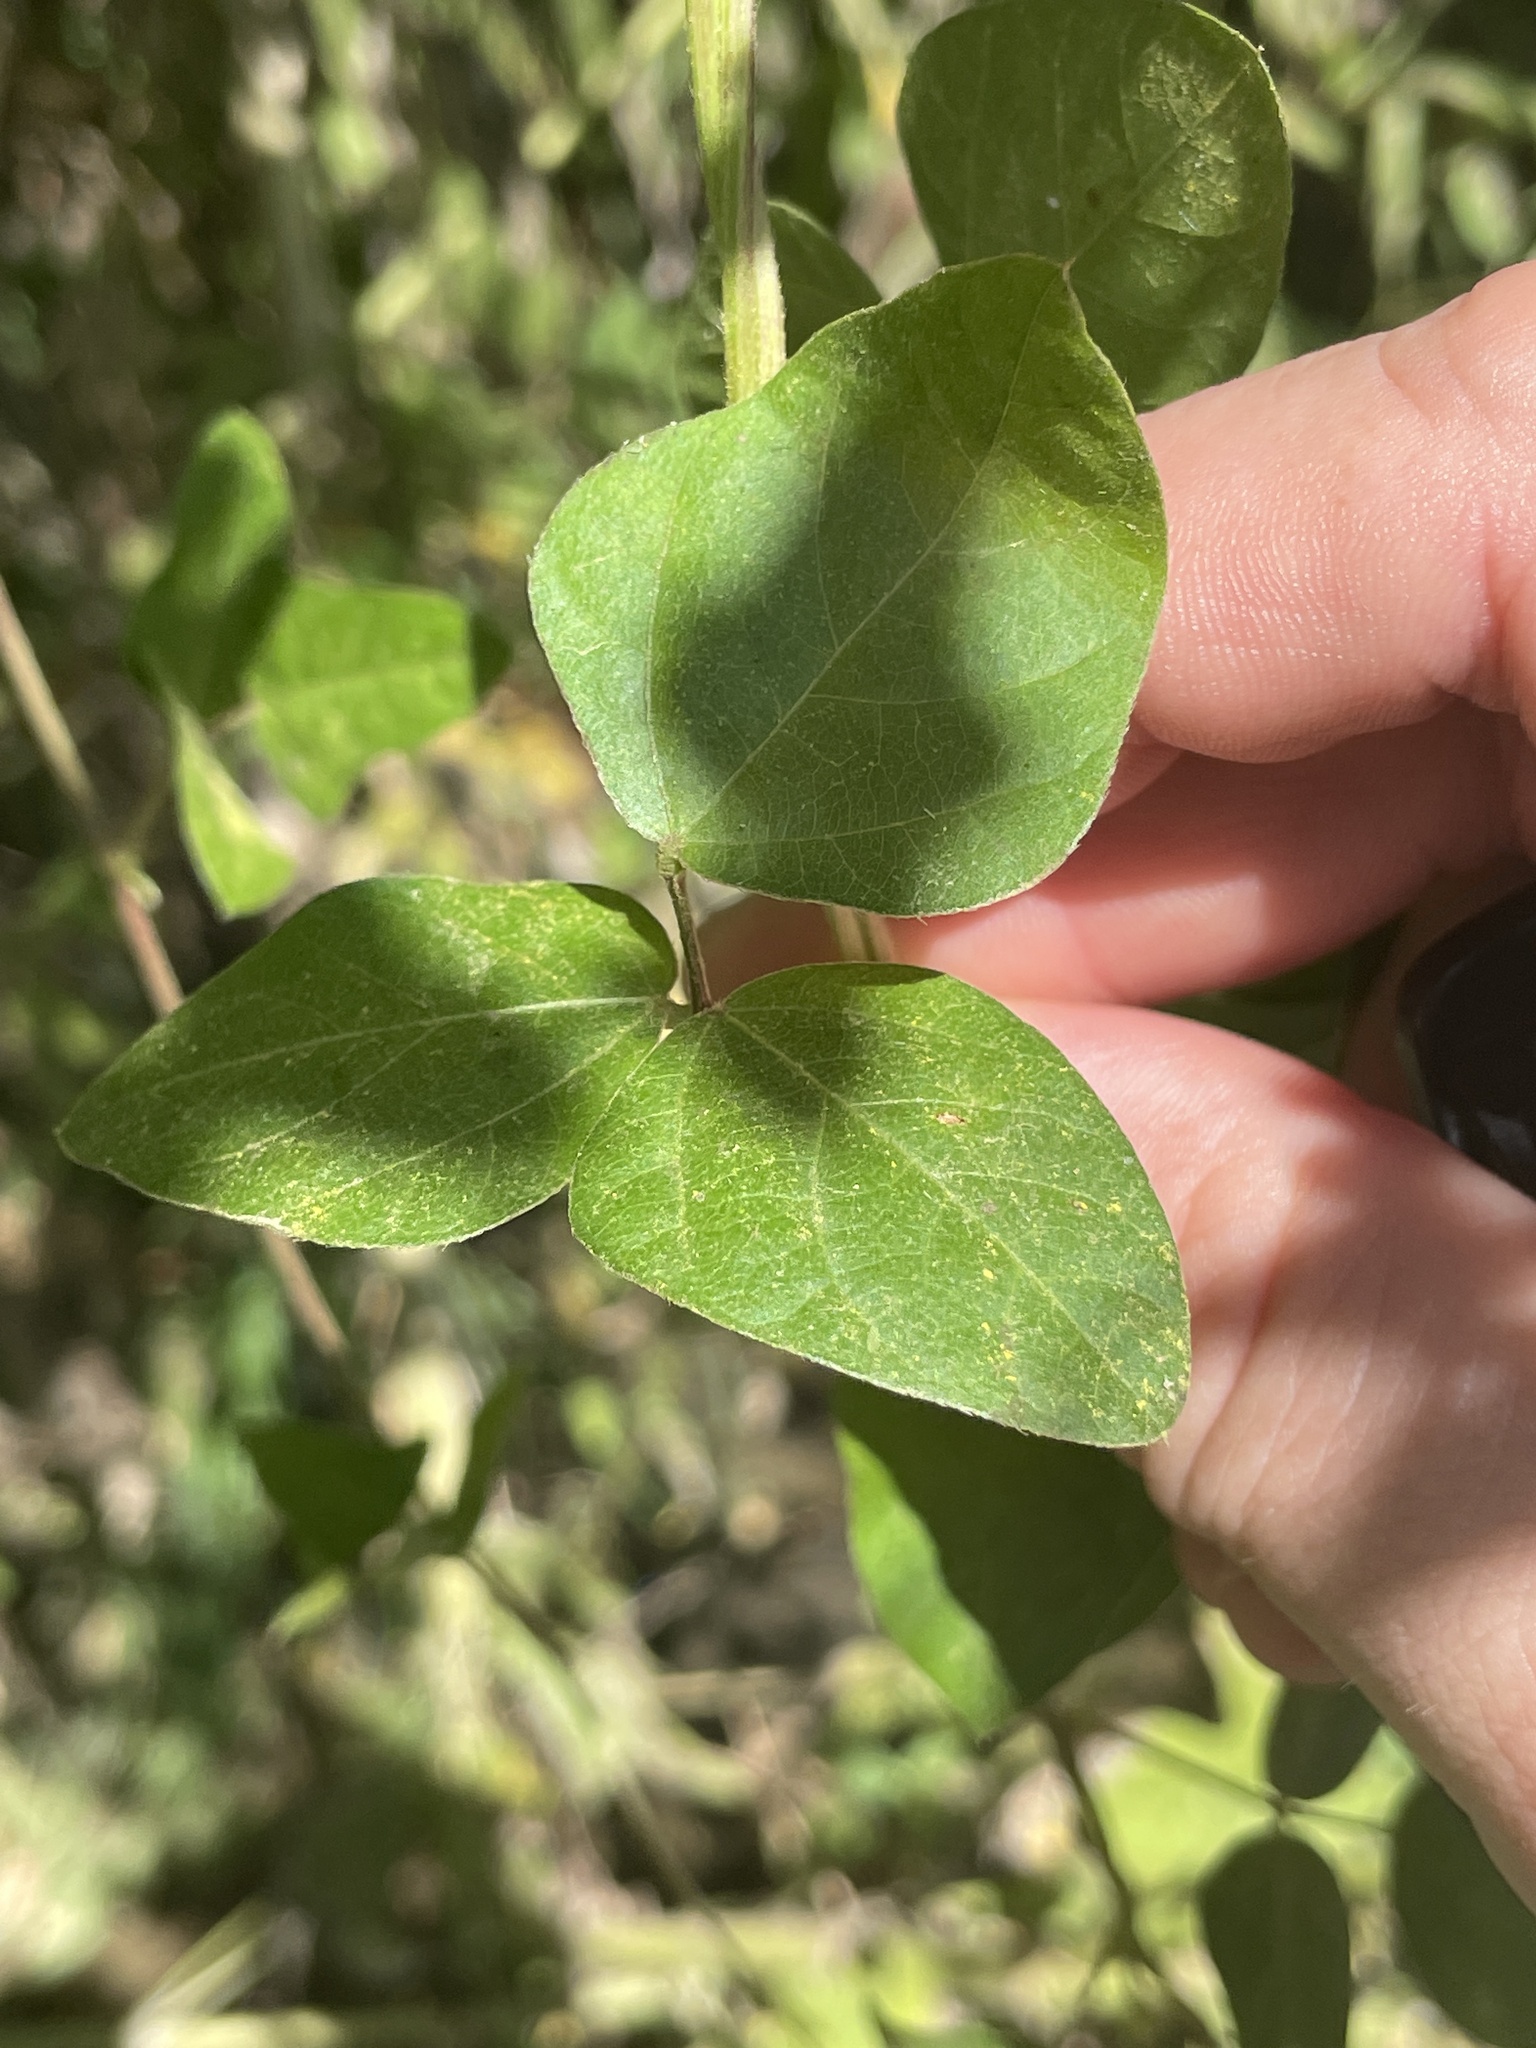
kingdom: Plantae
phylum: Tracheophyta
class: Magnoliopsida
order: Fabales
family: Fabaceae
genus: Strophostyles
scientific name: Strophostyles helvola
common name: Trailing wild bean
